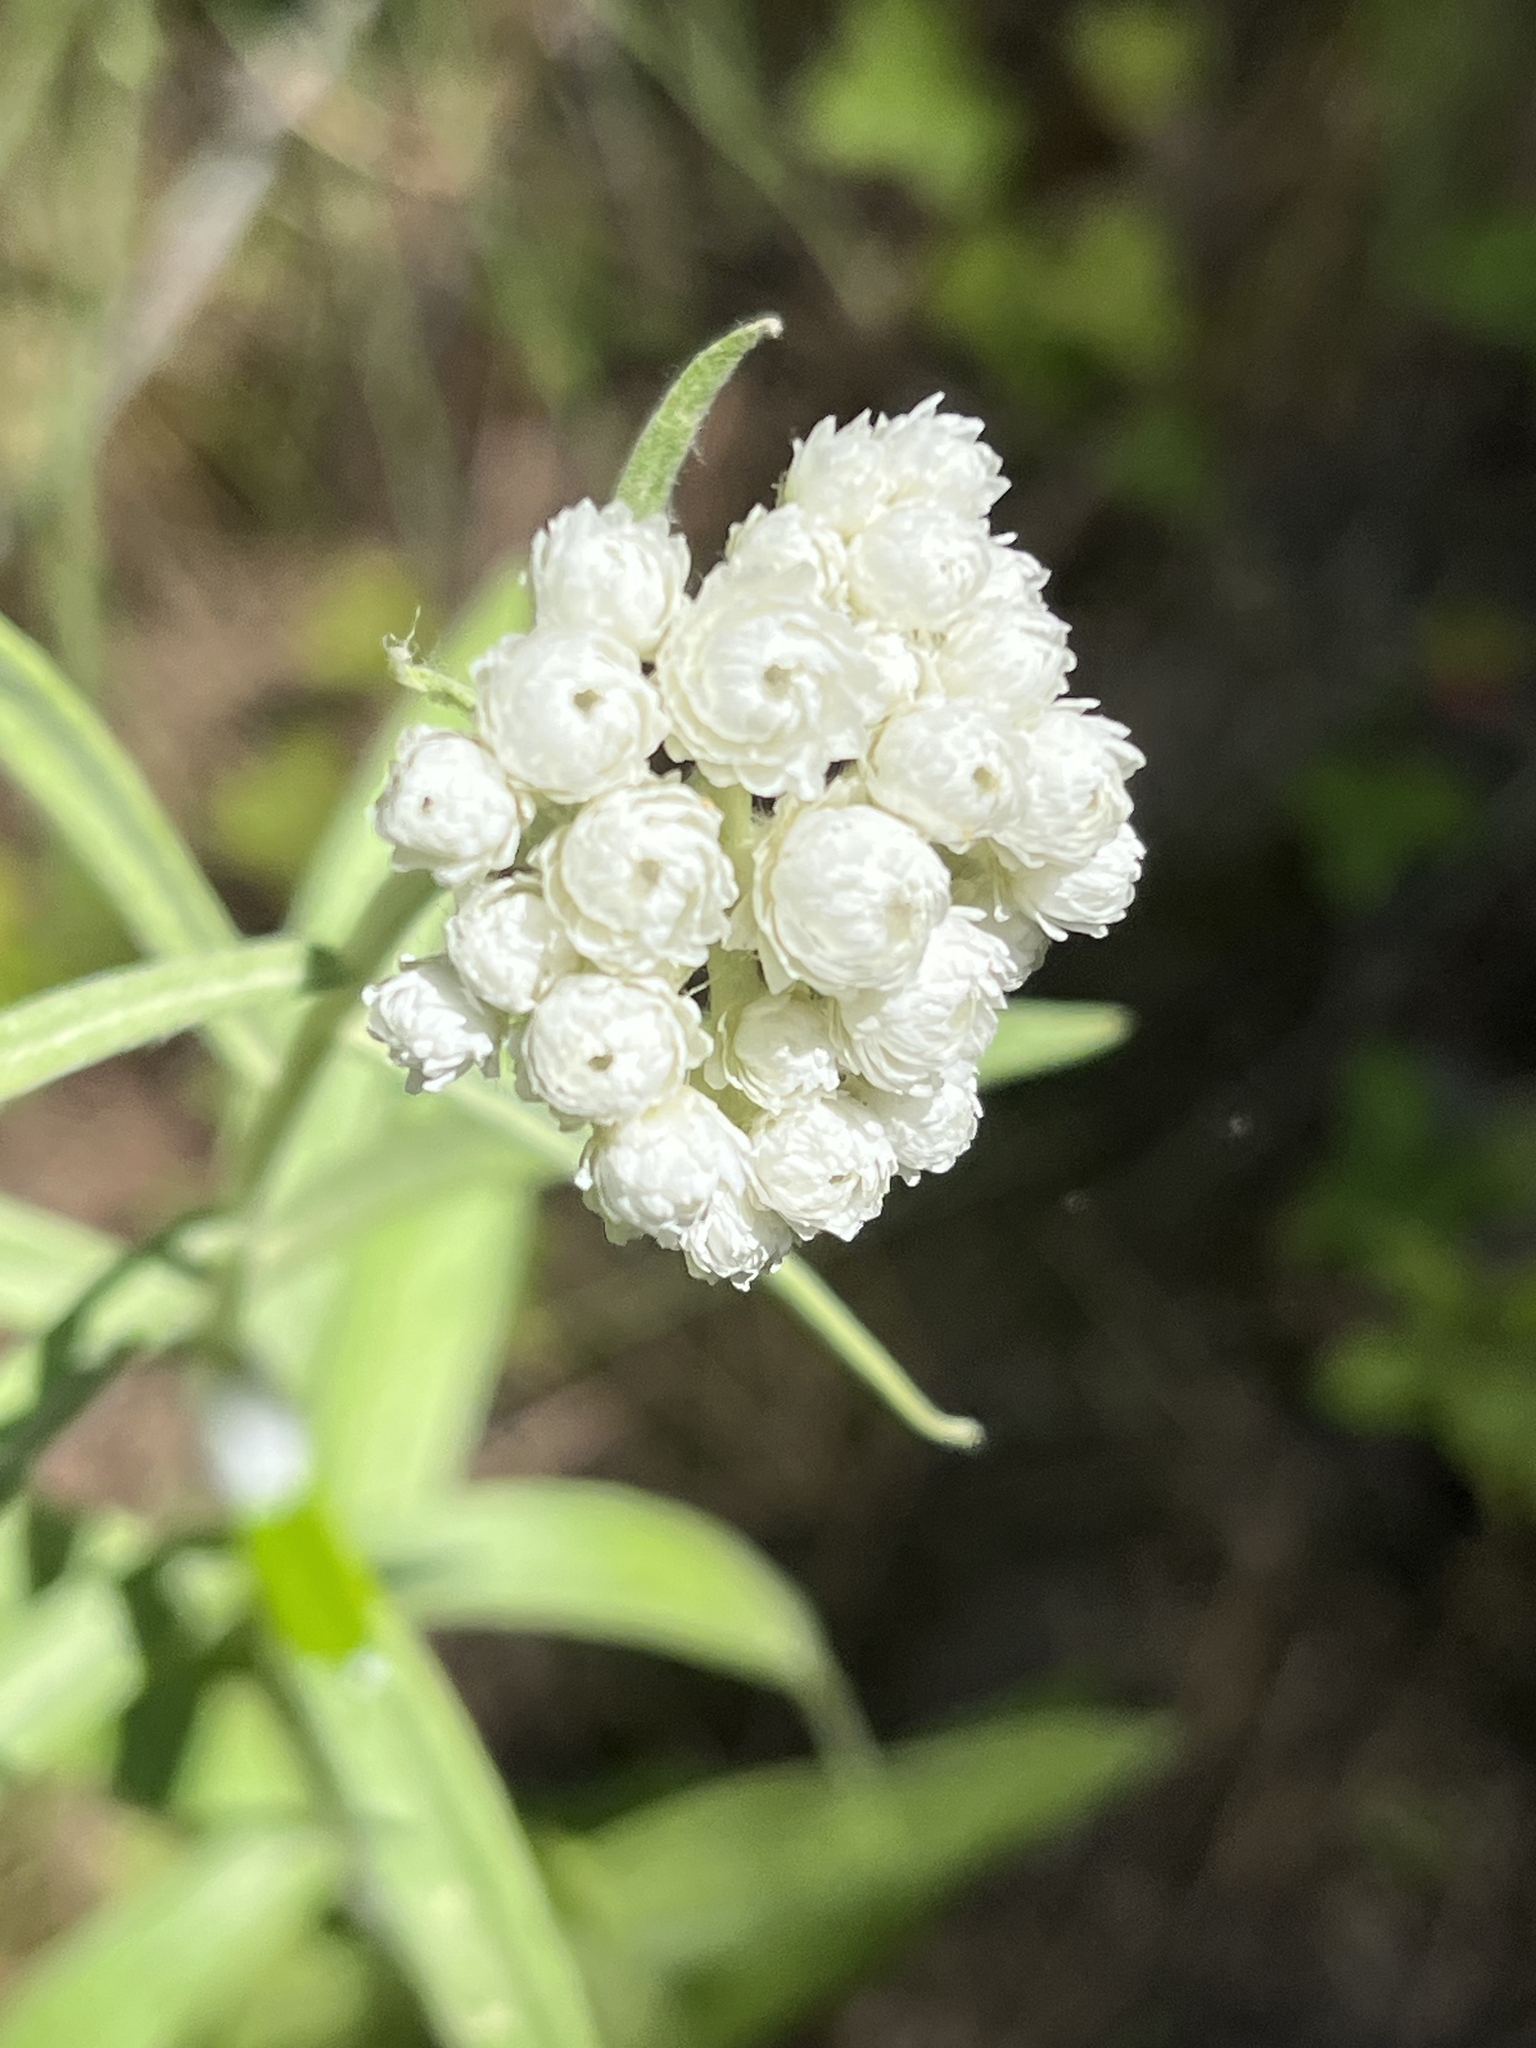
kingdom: Plantae
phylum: Tracheophyta
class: Magnoliopsida
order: Asterales
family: Asteraceae
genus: Anaphalis
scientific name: Anaphalis margaritacea
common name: Pearly everlasting
